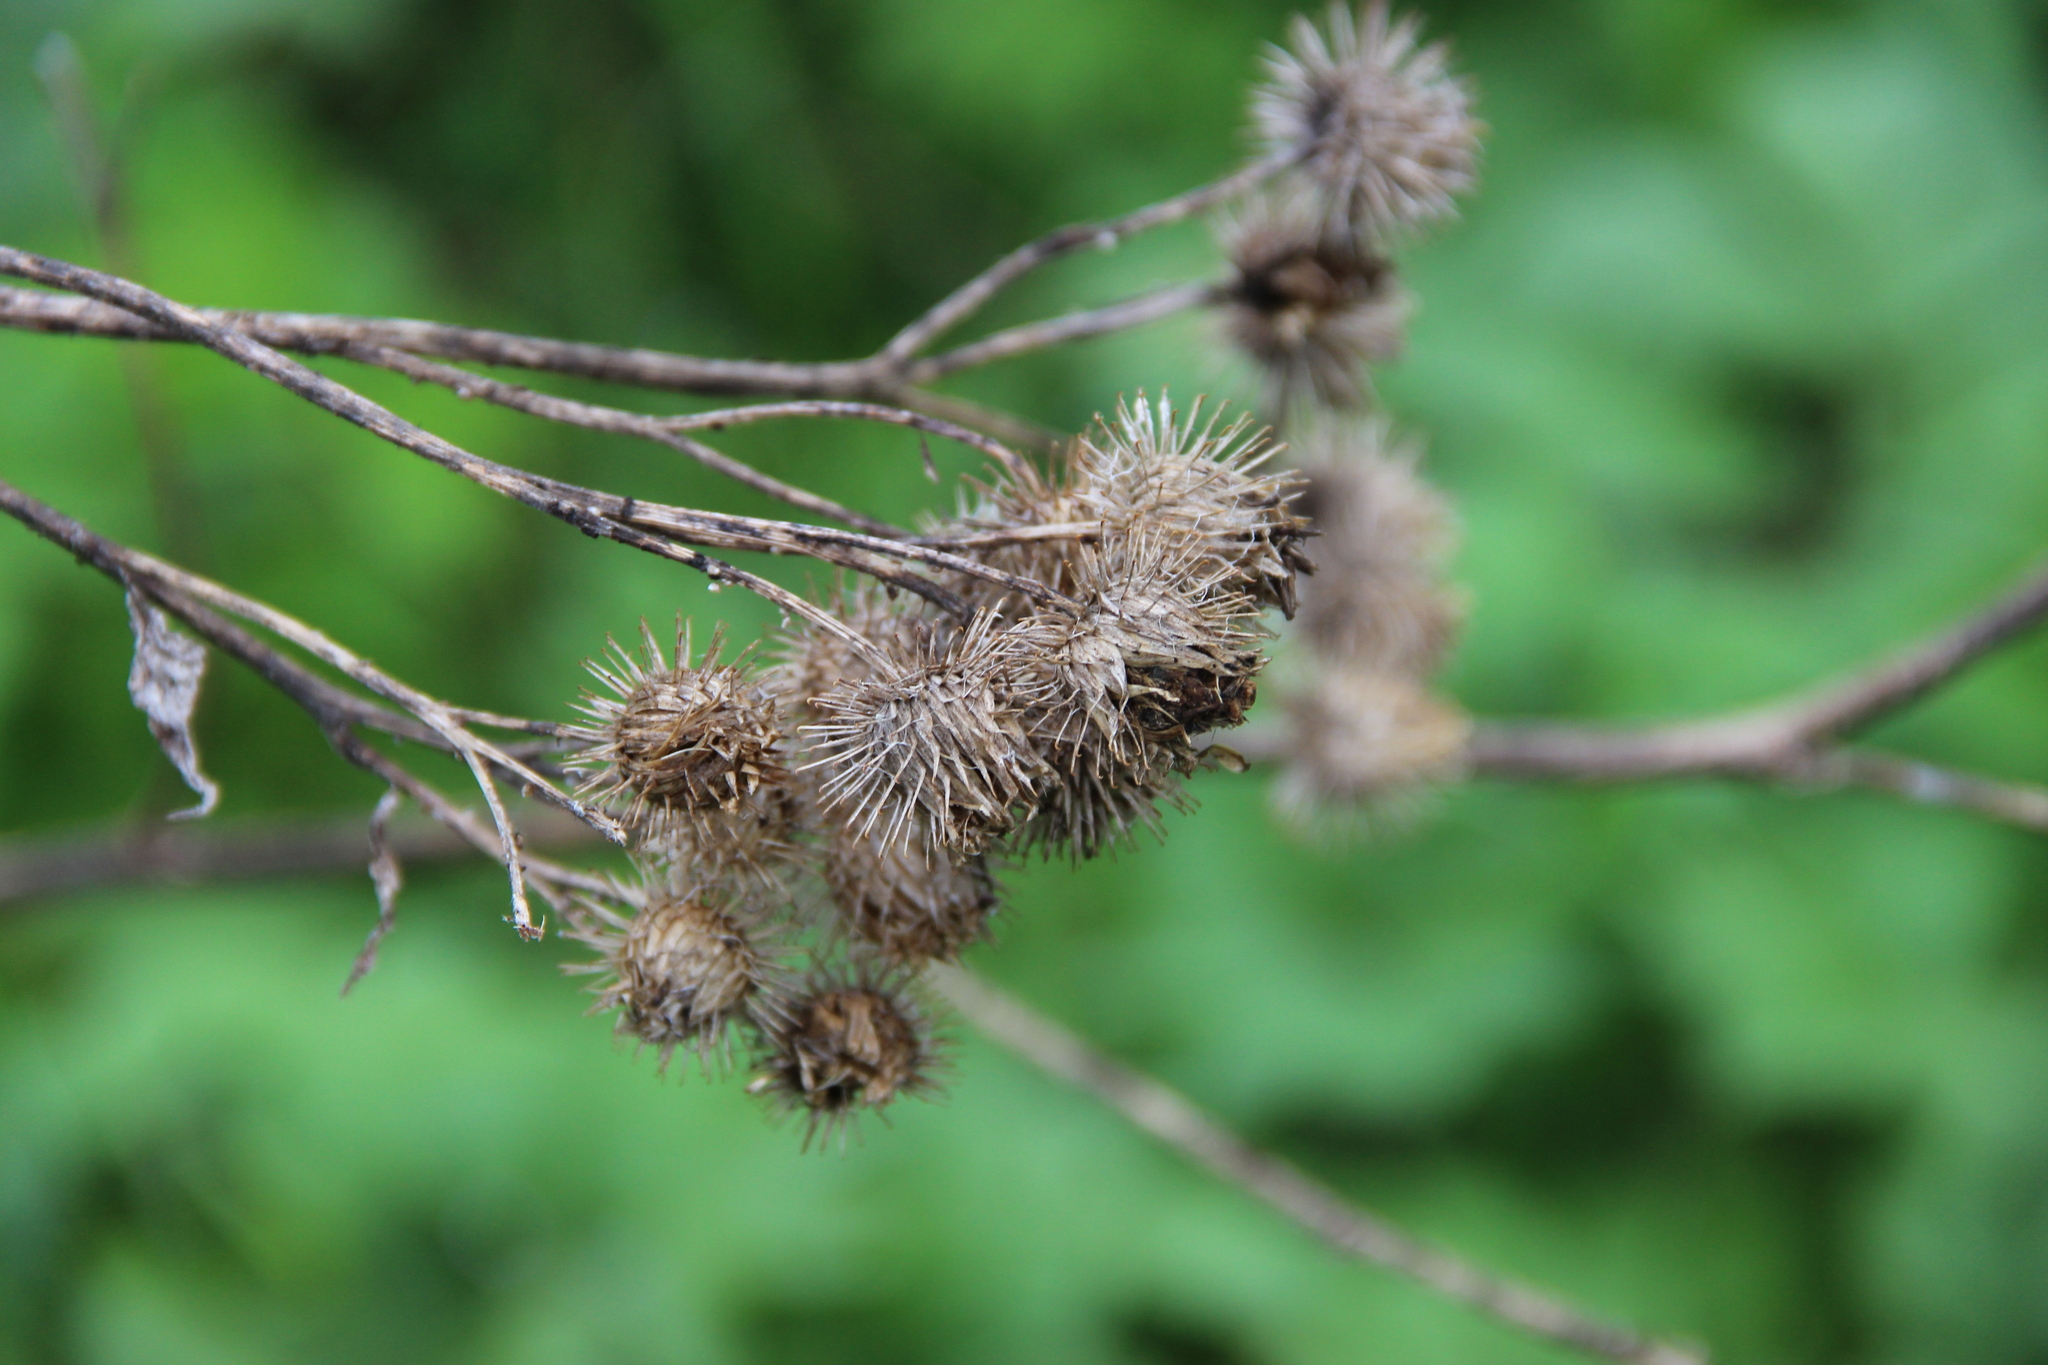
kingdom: Plantae
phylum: Tracheophyta
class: Magnoliopsida
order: Asterales
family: Asteraceae
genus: Arctium
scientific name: Arctium tomentosum
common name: Woolly burdock
